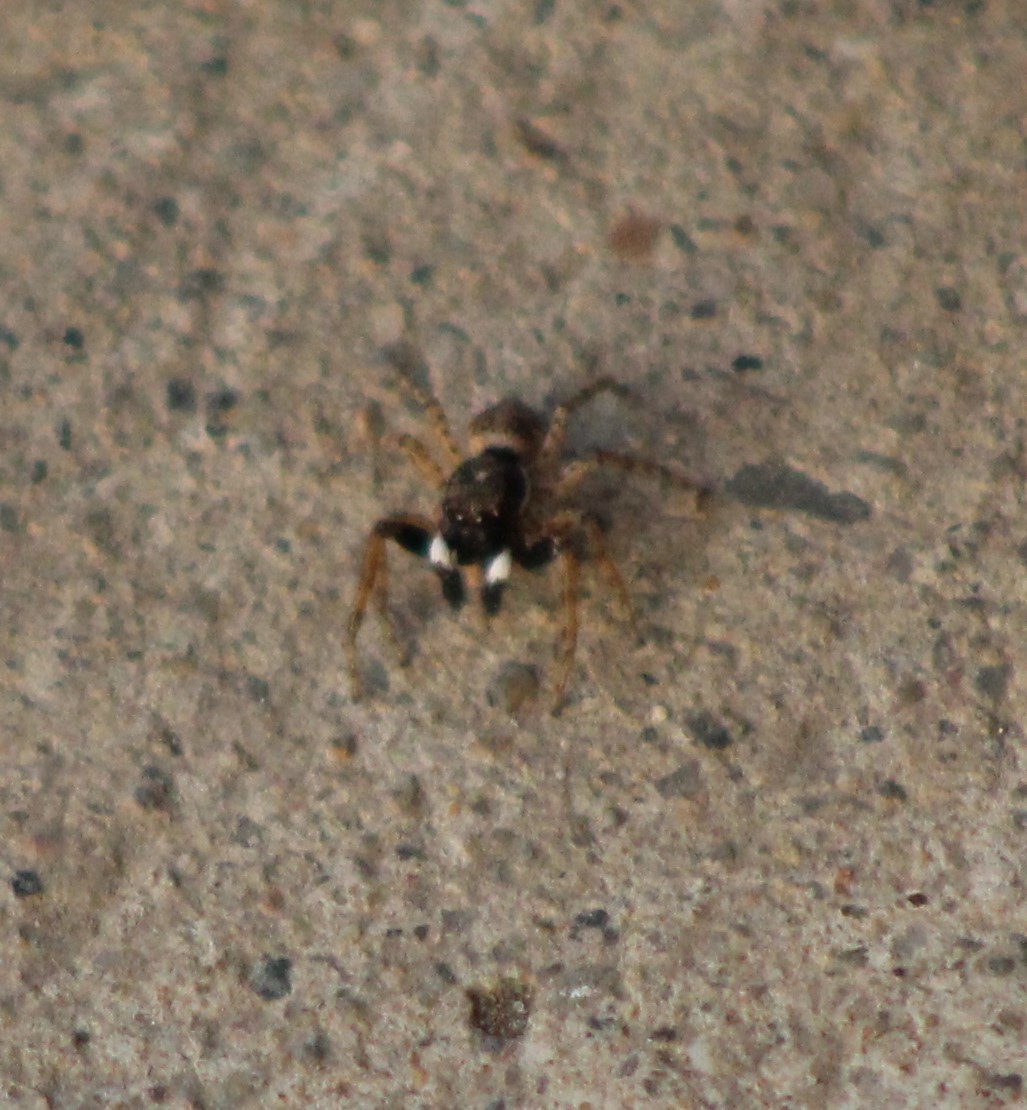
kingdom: Animalia
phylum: Arthropoda
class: Arachnida
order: Araneae
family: Salticidae
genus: Menemerus
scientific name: Menemerus semilimbatus
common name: Jumping spider
